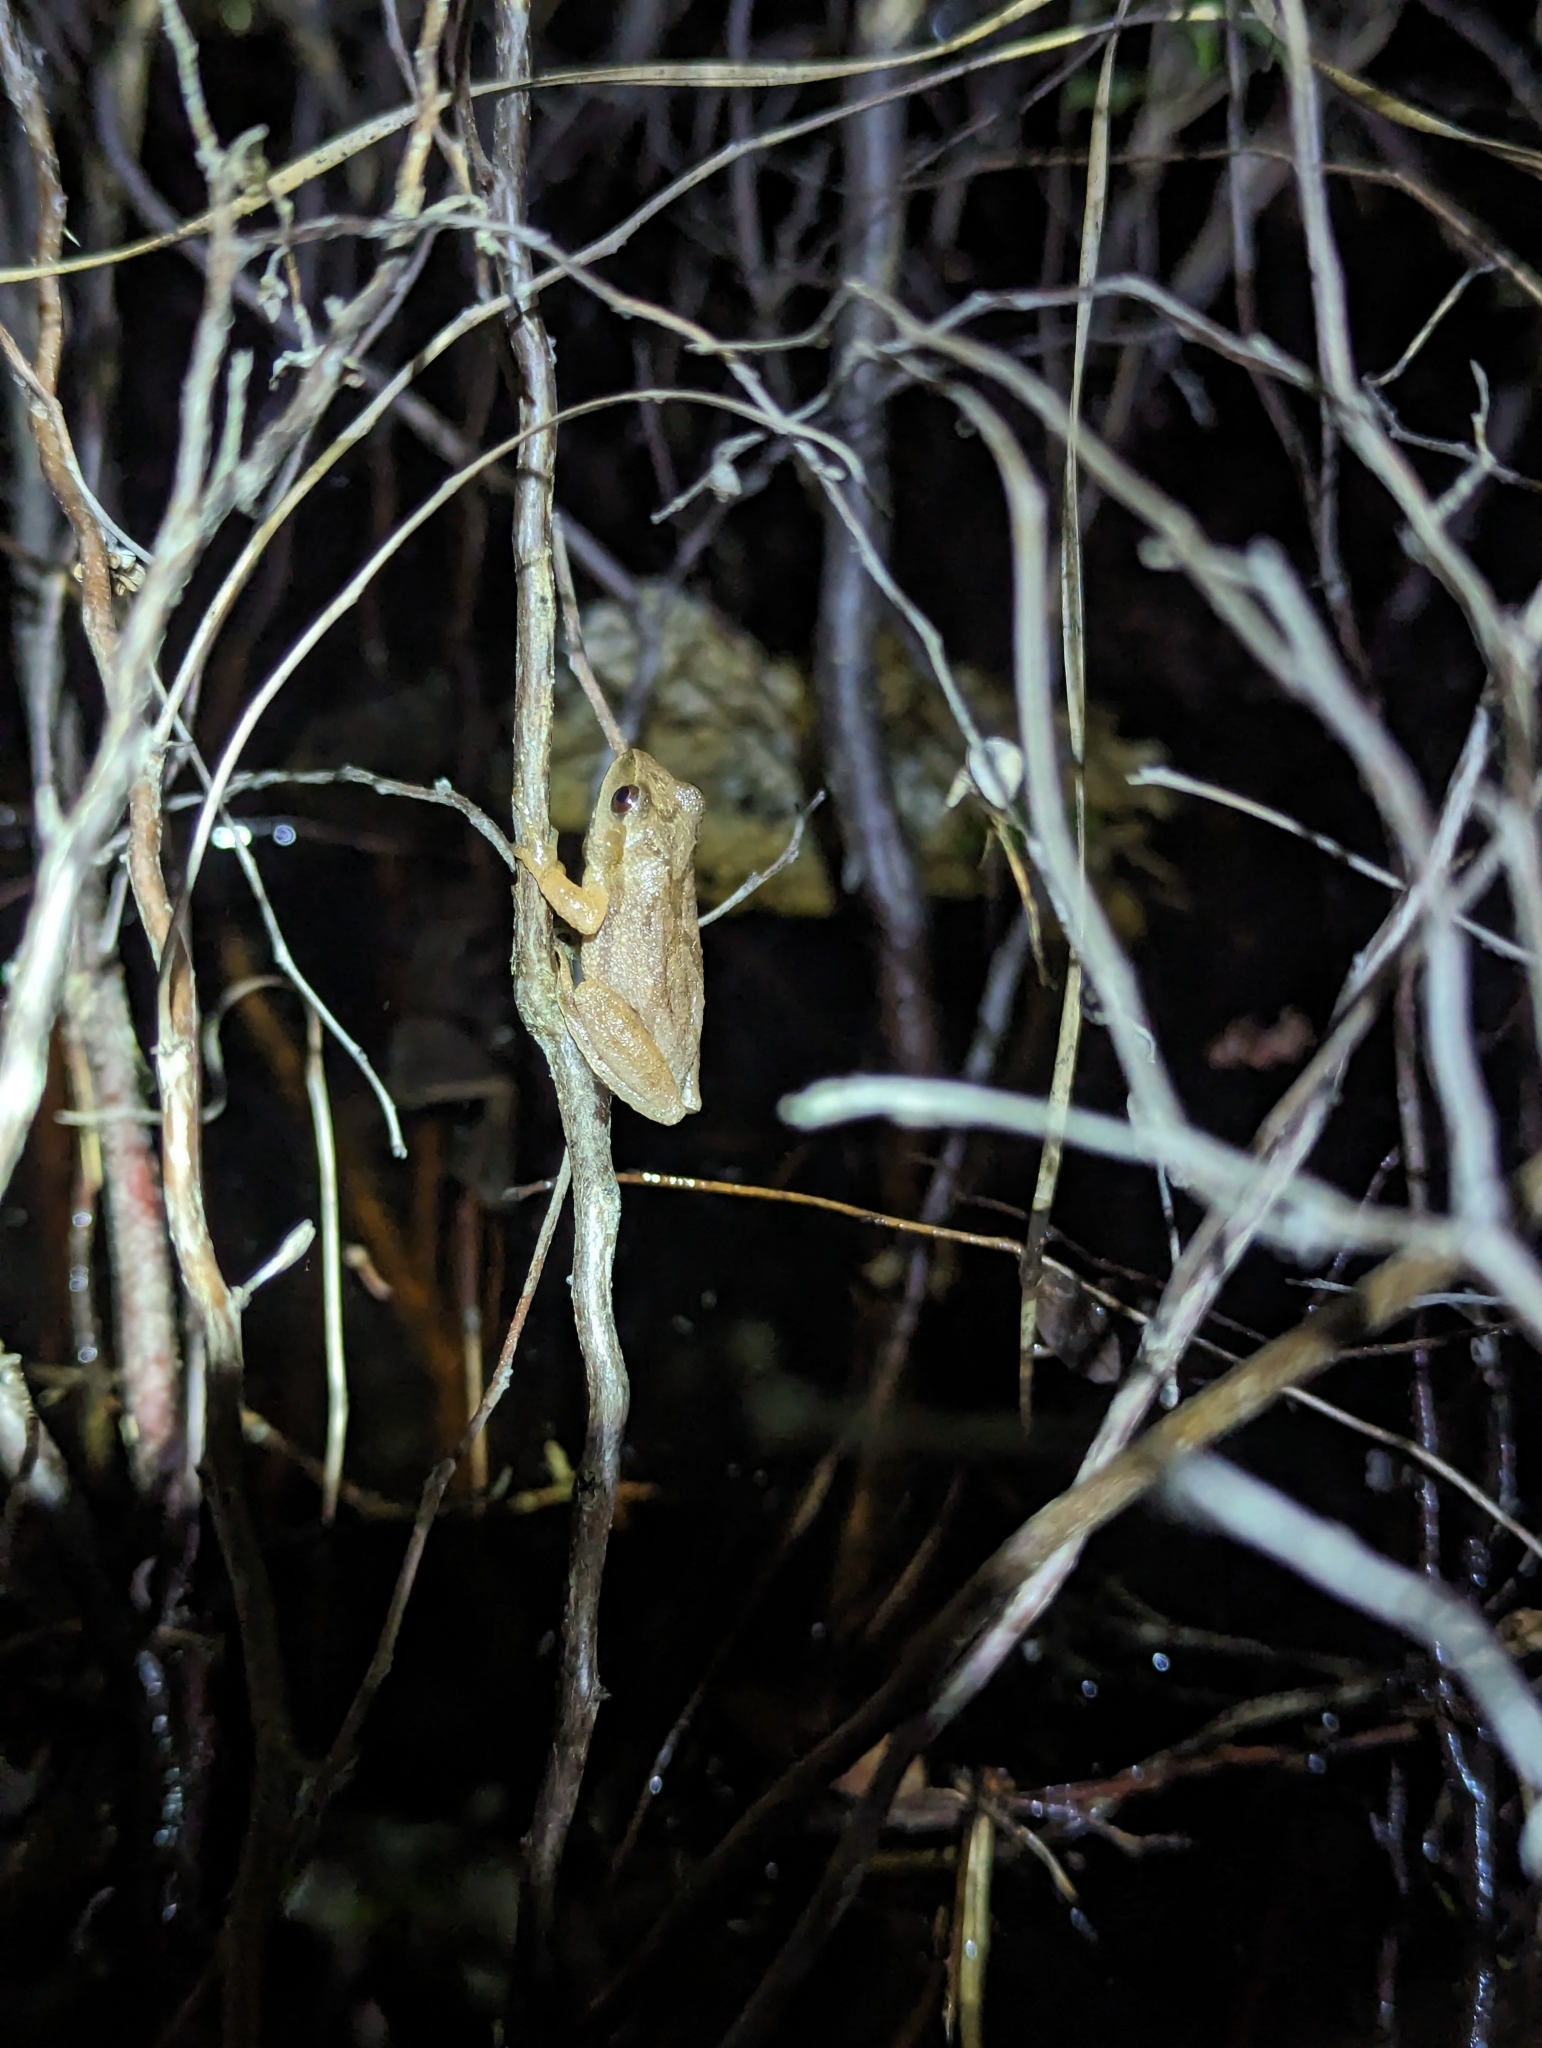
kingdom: Animalia
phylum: Chordata
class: Amphibia
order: Anura
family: Hylidae
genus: Pseudacris
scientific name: Pseudacris crucifer
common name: Spring peeper
